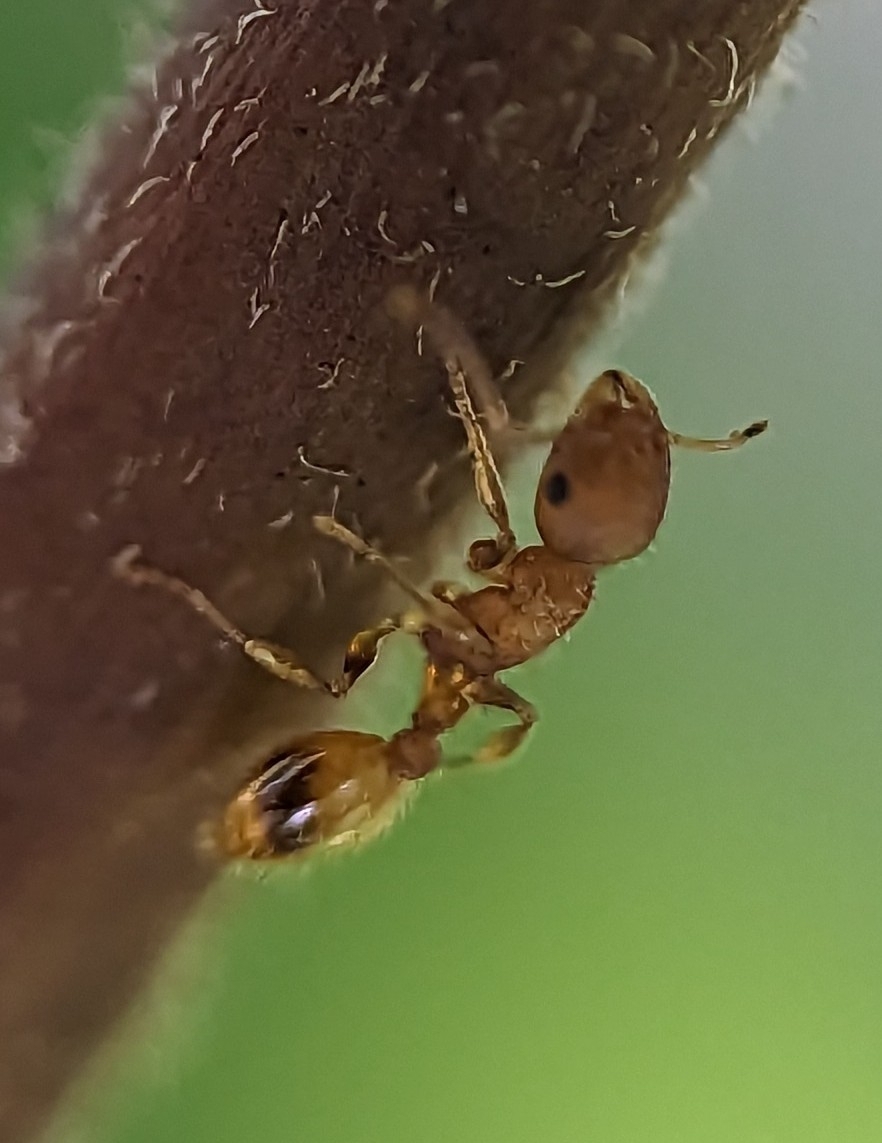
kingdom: Animalia
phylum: Arthropoda
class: Insecta
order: Hymenoptera
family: Formicidae
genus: Temnothorax
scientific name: Temnothorax curvispinosus
